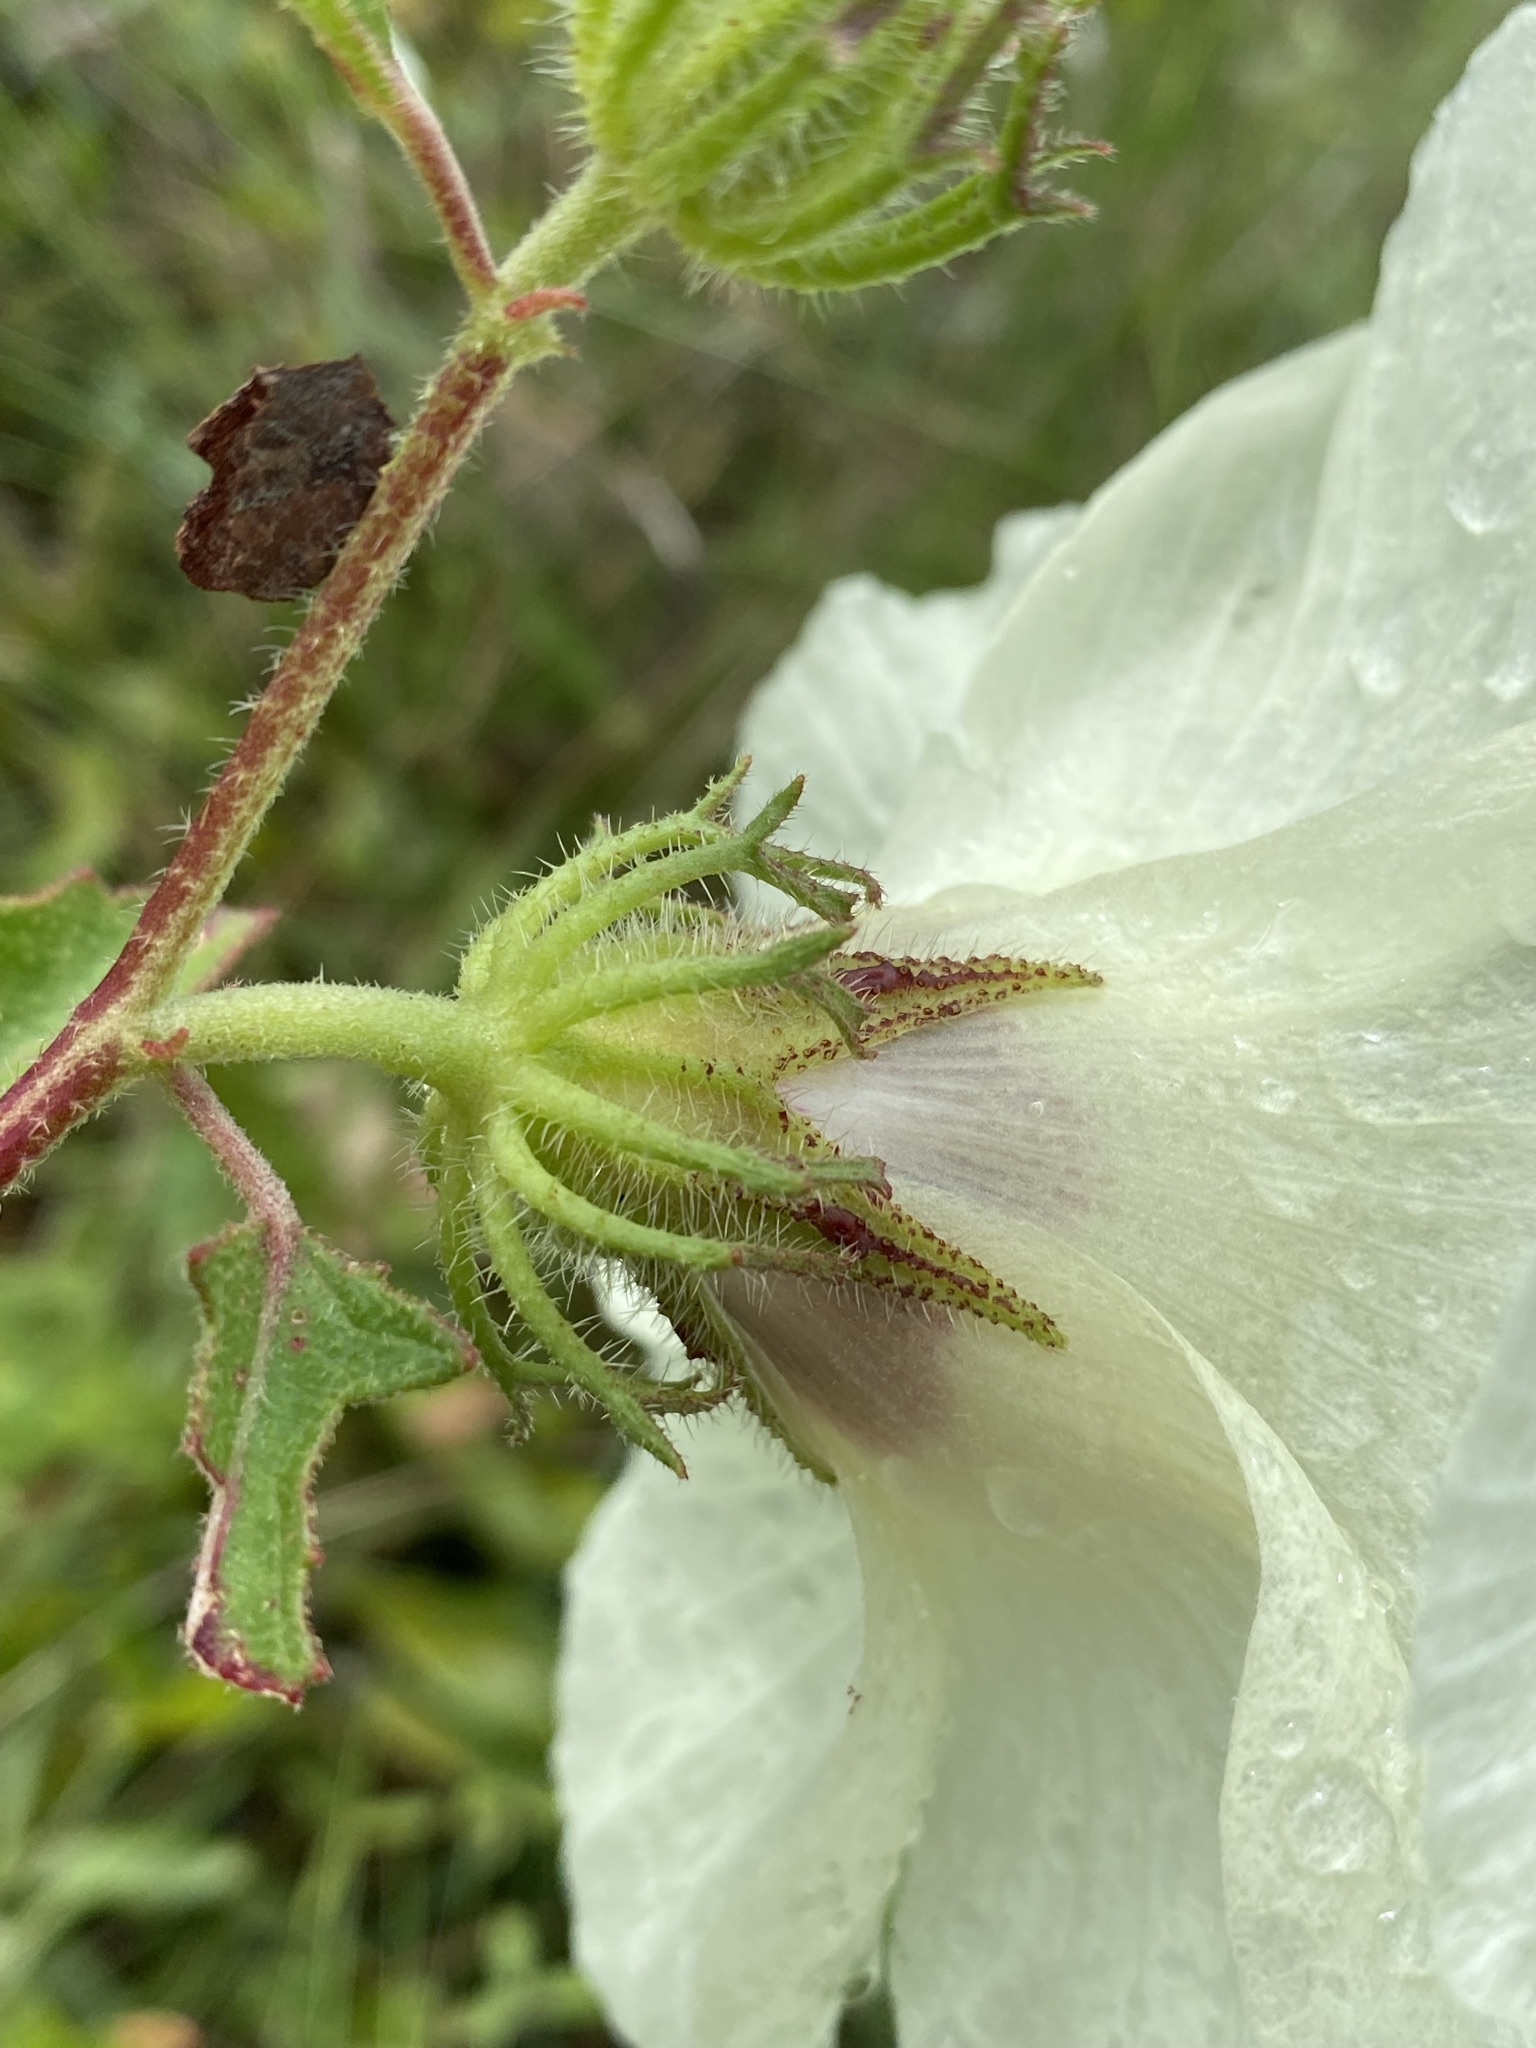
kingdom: Plantae
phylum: Tracheophyta
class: Magnoliopsida
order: Malvales
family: Malvaceae
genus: Hibiscus
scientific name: Hibiscus aculeatus
